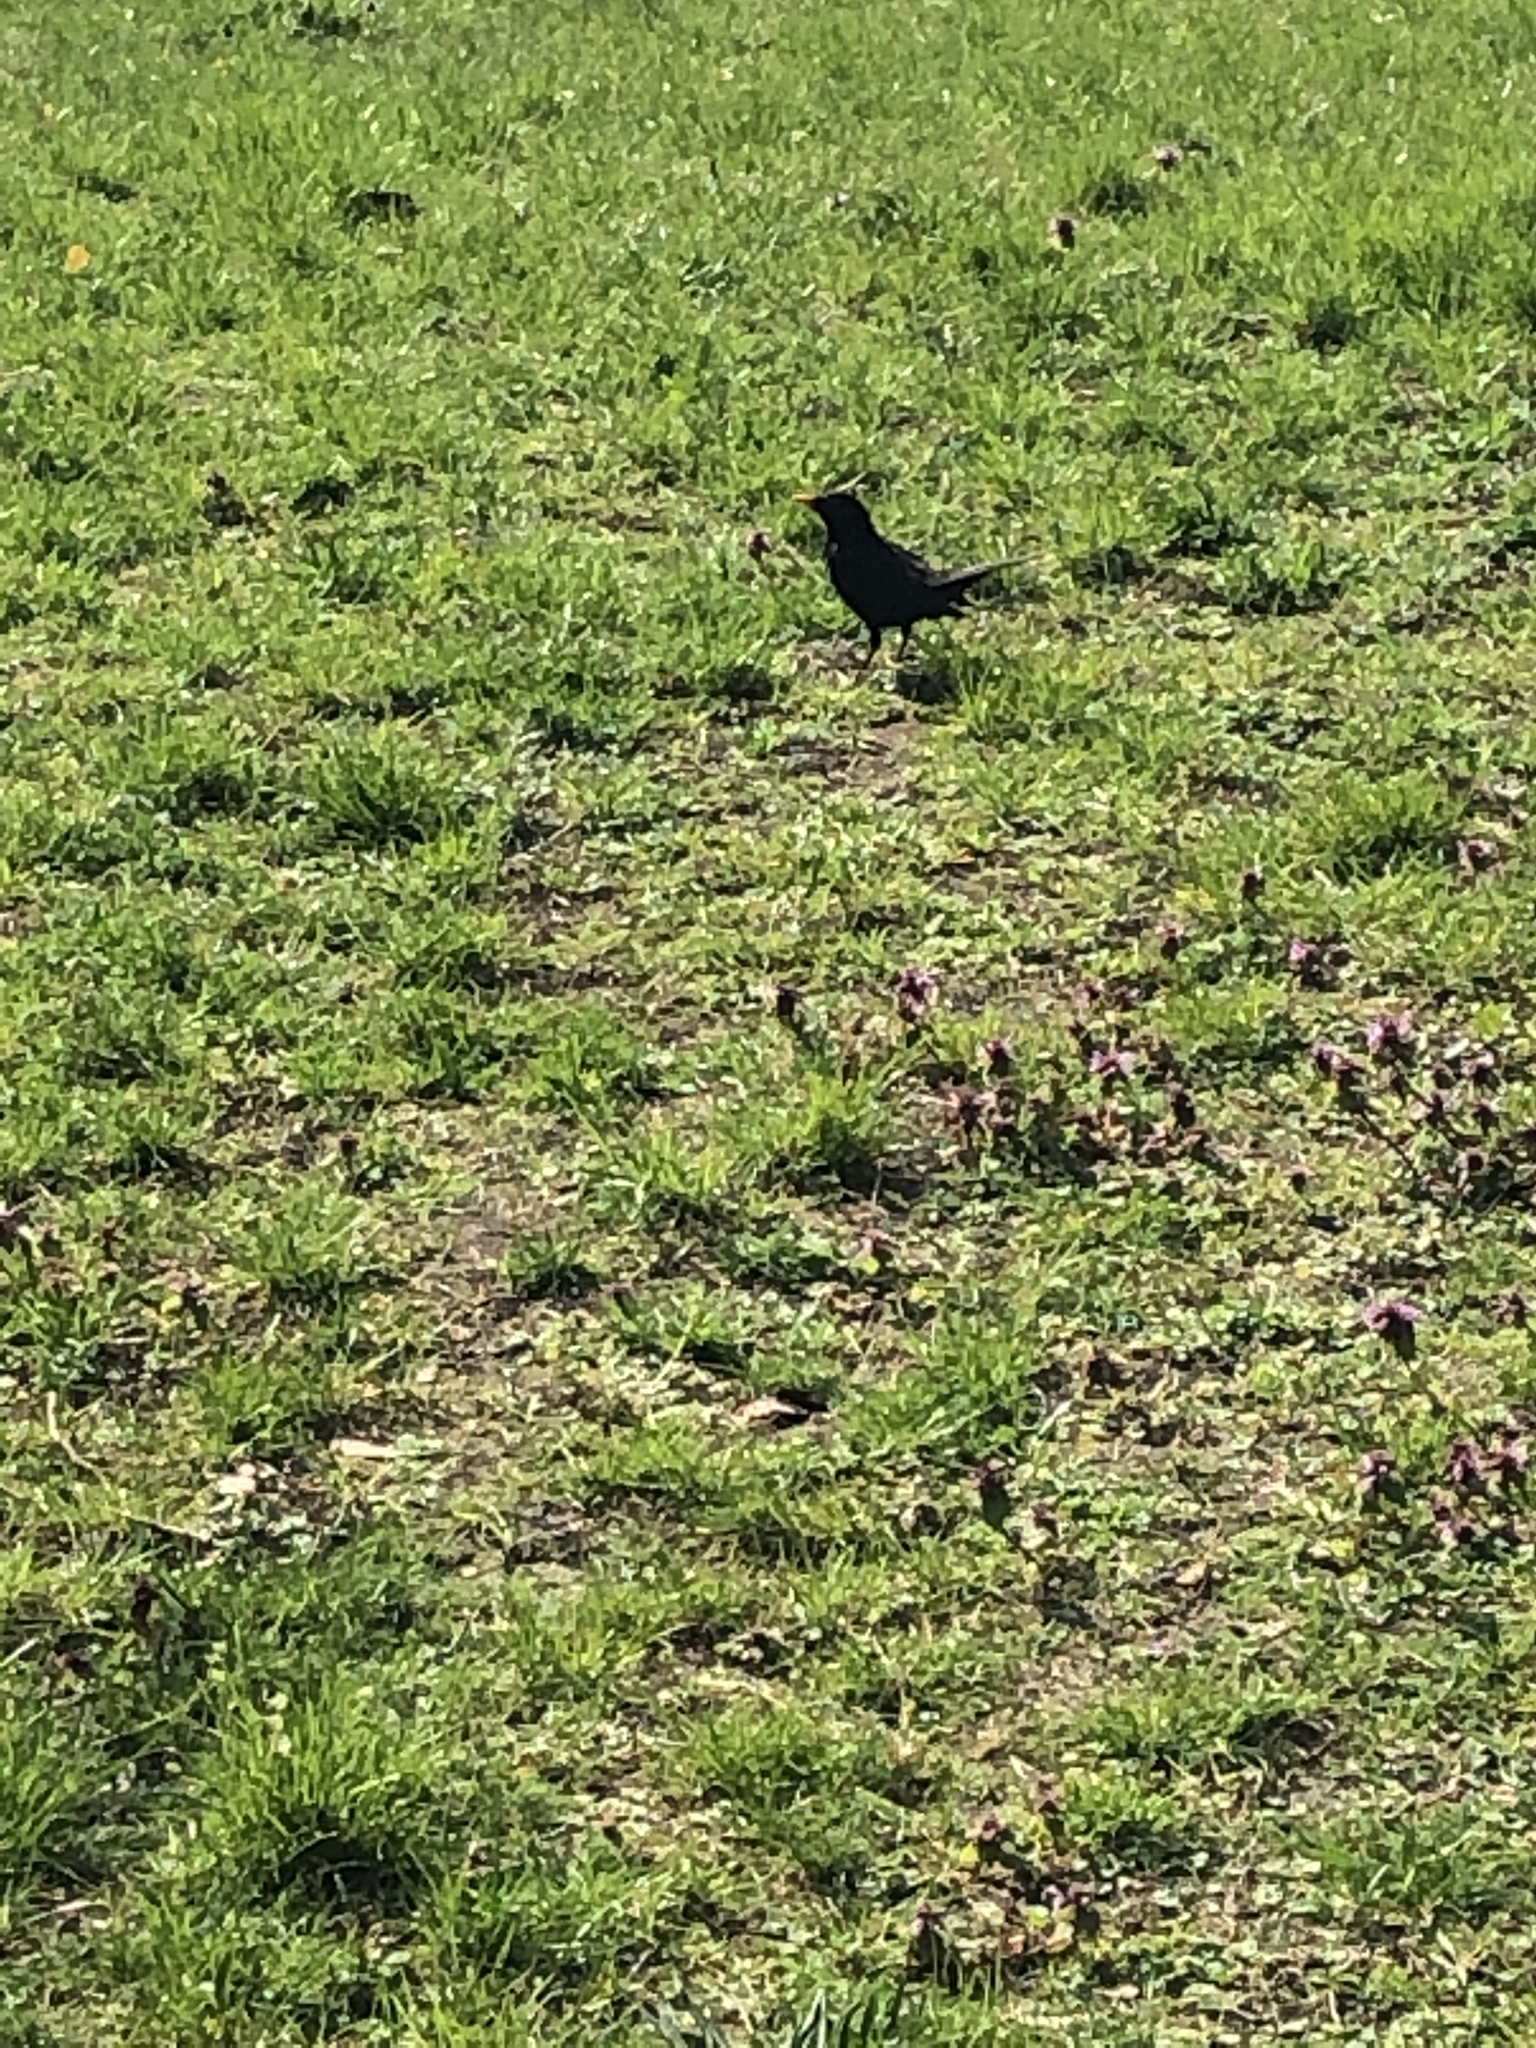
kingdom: Animalia
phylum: Chordata
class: Aves
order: Passeriformes
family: Turdidae
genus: Turdus
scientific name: Turdus merula
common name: Common blackbird
